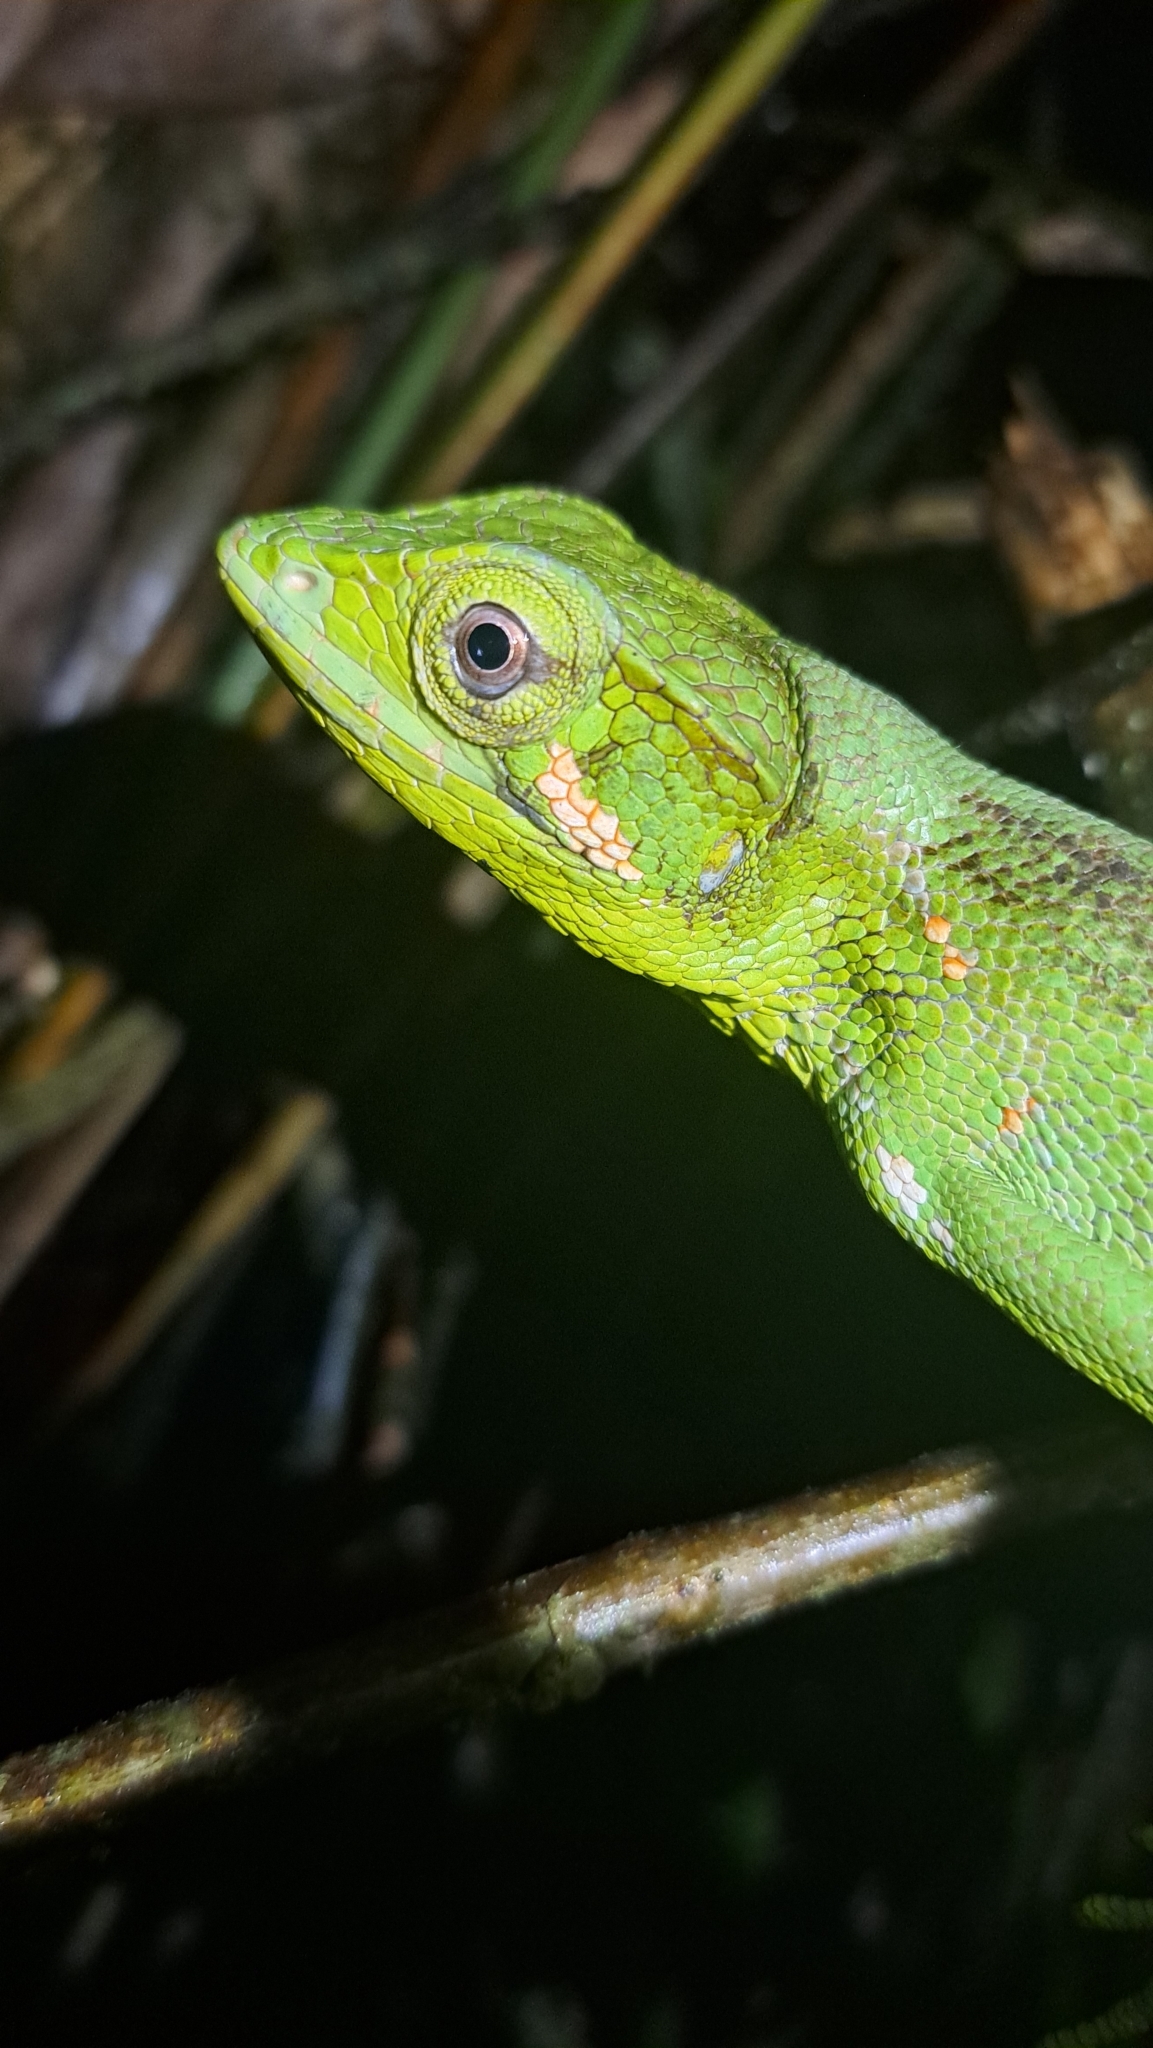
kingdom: Animalia
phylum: Chordata
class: Squamata
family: Polychrotidae
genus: Polychrus
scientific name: Polychrus gutturosus
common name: Berthold's bush anole
